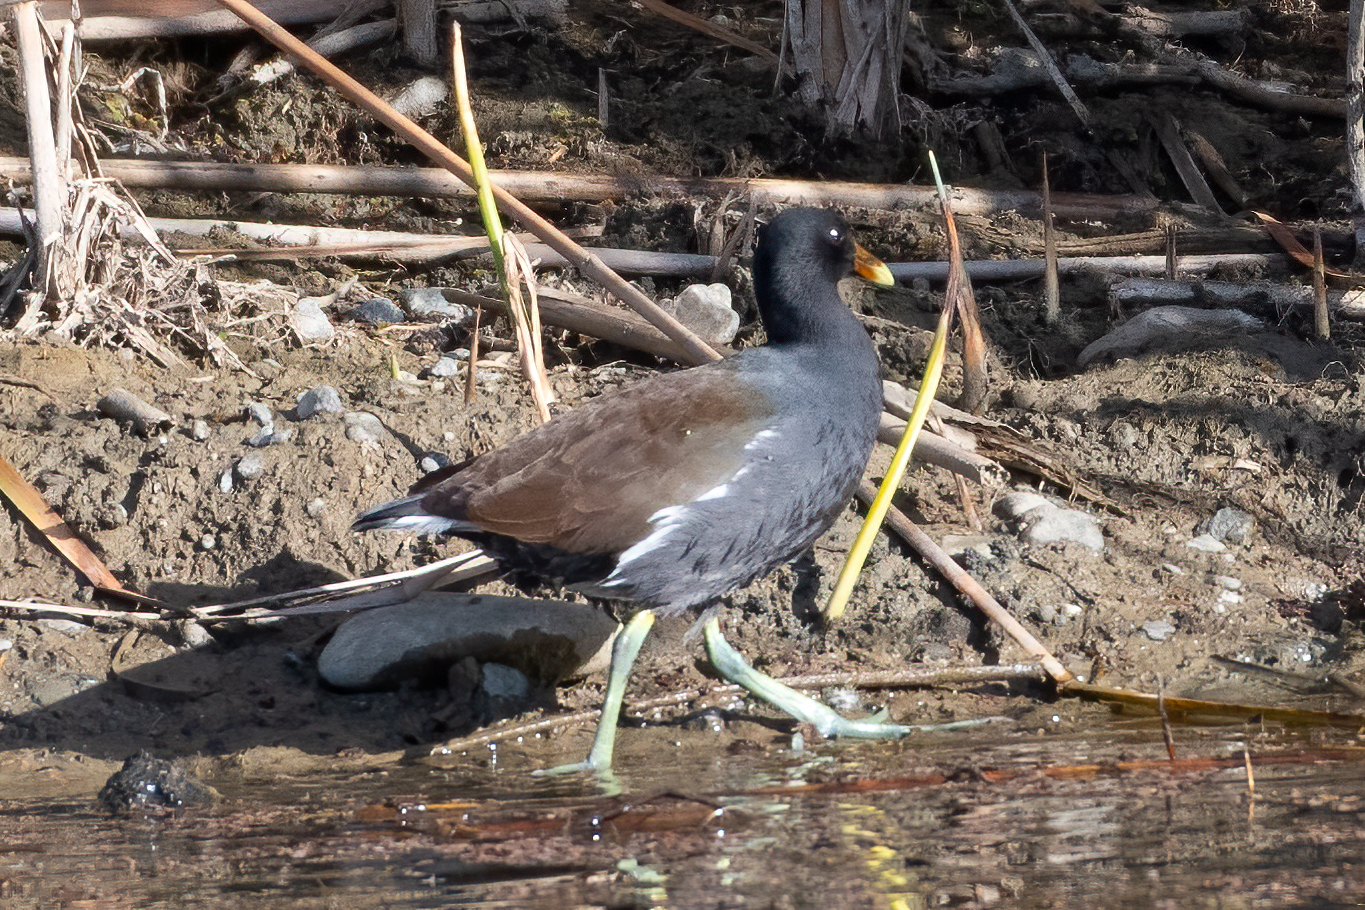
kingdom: Animalia
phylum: Chordata
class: Aves
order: Gruiformes
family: Rallidae
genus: Gallinula
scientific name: Gallinula chloropus
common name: Common moorhen
